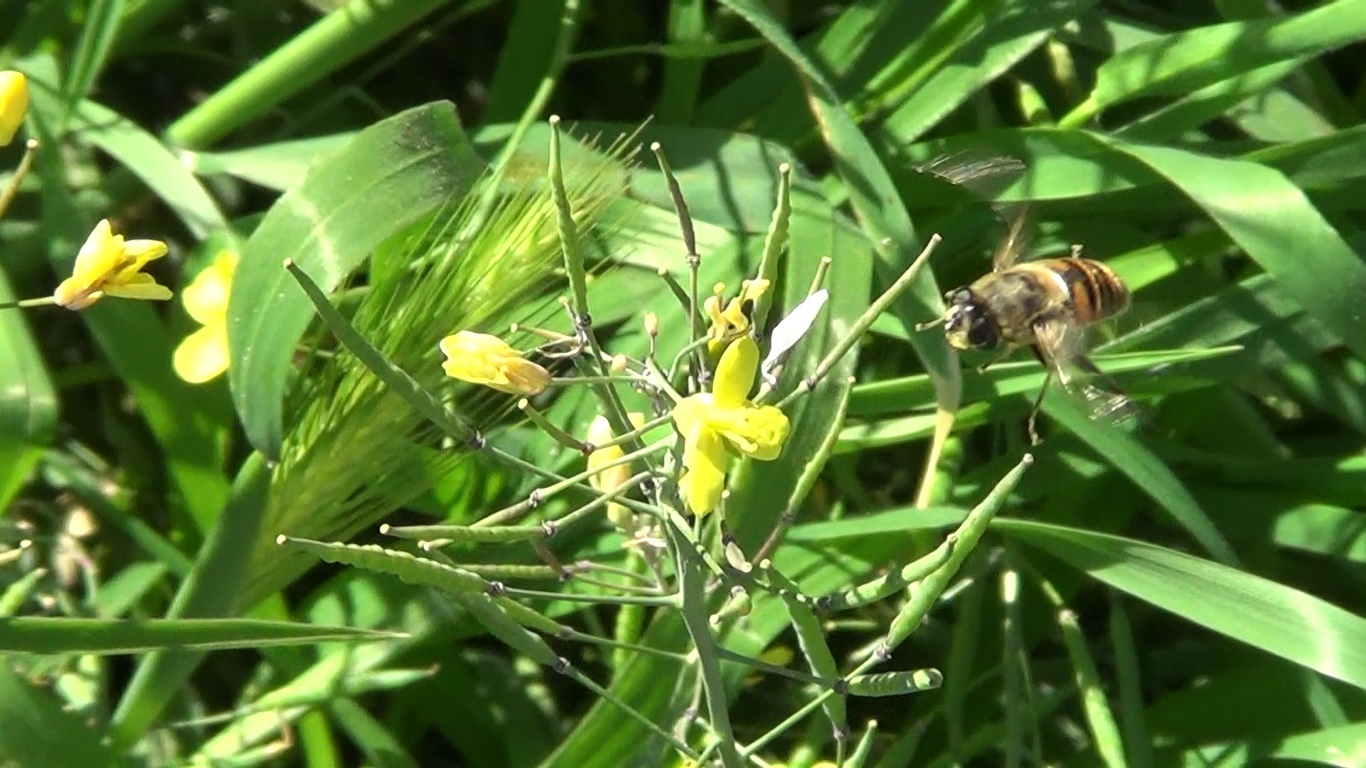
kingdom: Animalia
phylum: Arthropoda
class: Insecta
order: Diptera
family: Syrphidae
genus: Eristalis
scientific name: Eristalis tenax
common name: Drone fly
